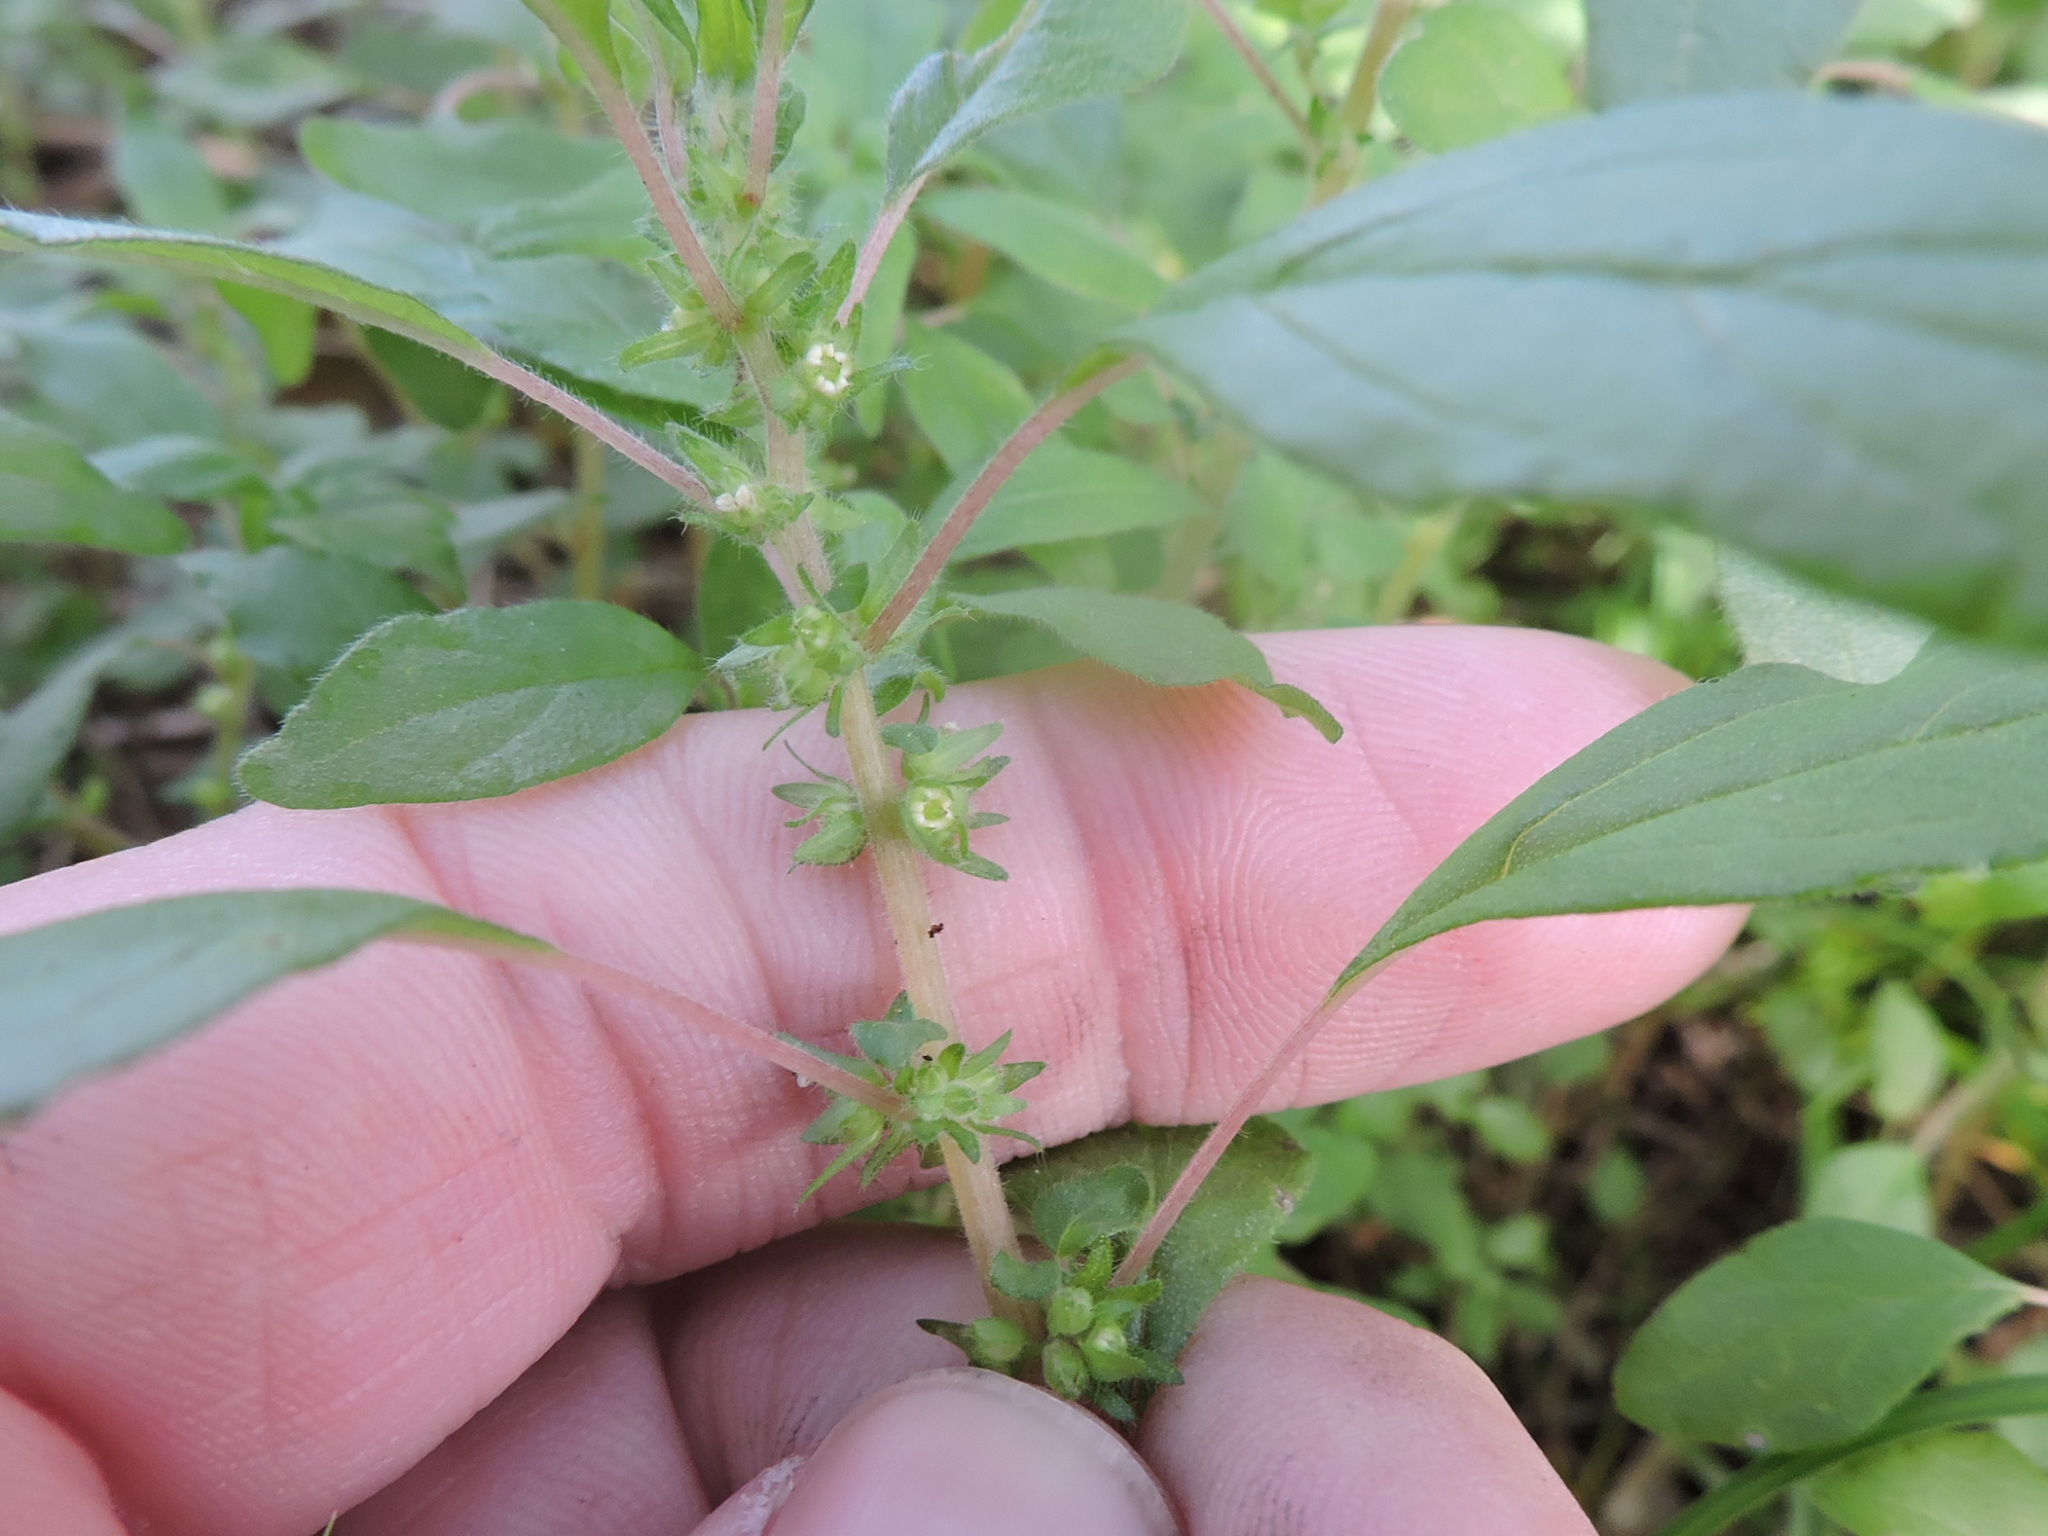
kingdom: Plantae
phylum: Tracheophyta
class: Magnoliopsida
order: Rosales
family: Urticaceae
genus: Parietaria
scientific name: Parietaria pensylvanica
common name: Pennsylvania pellitory
